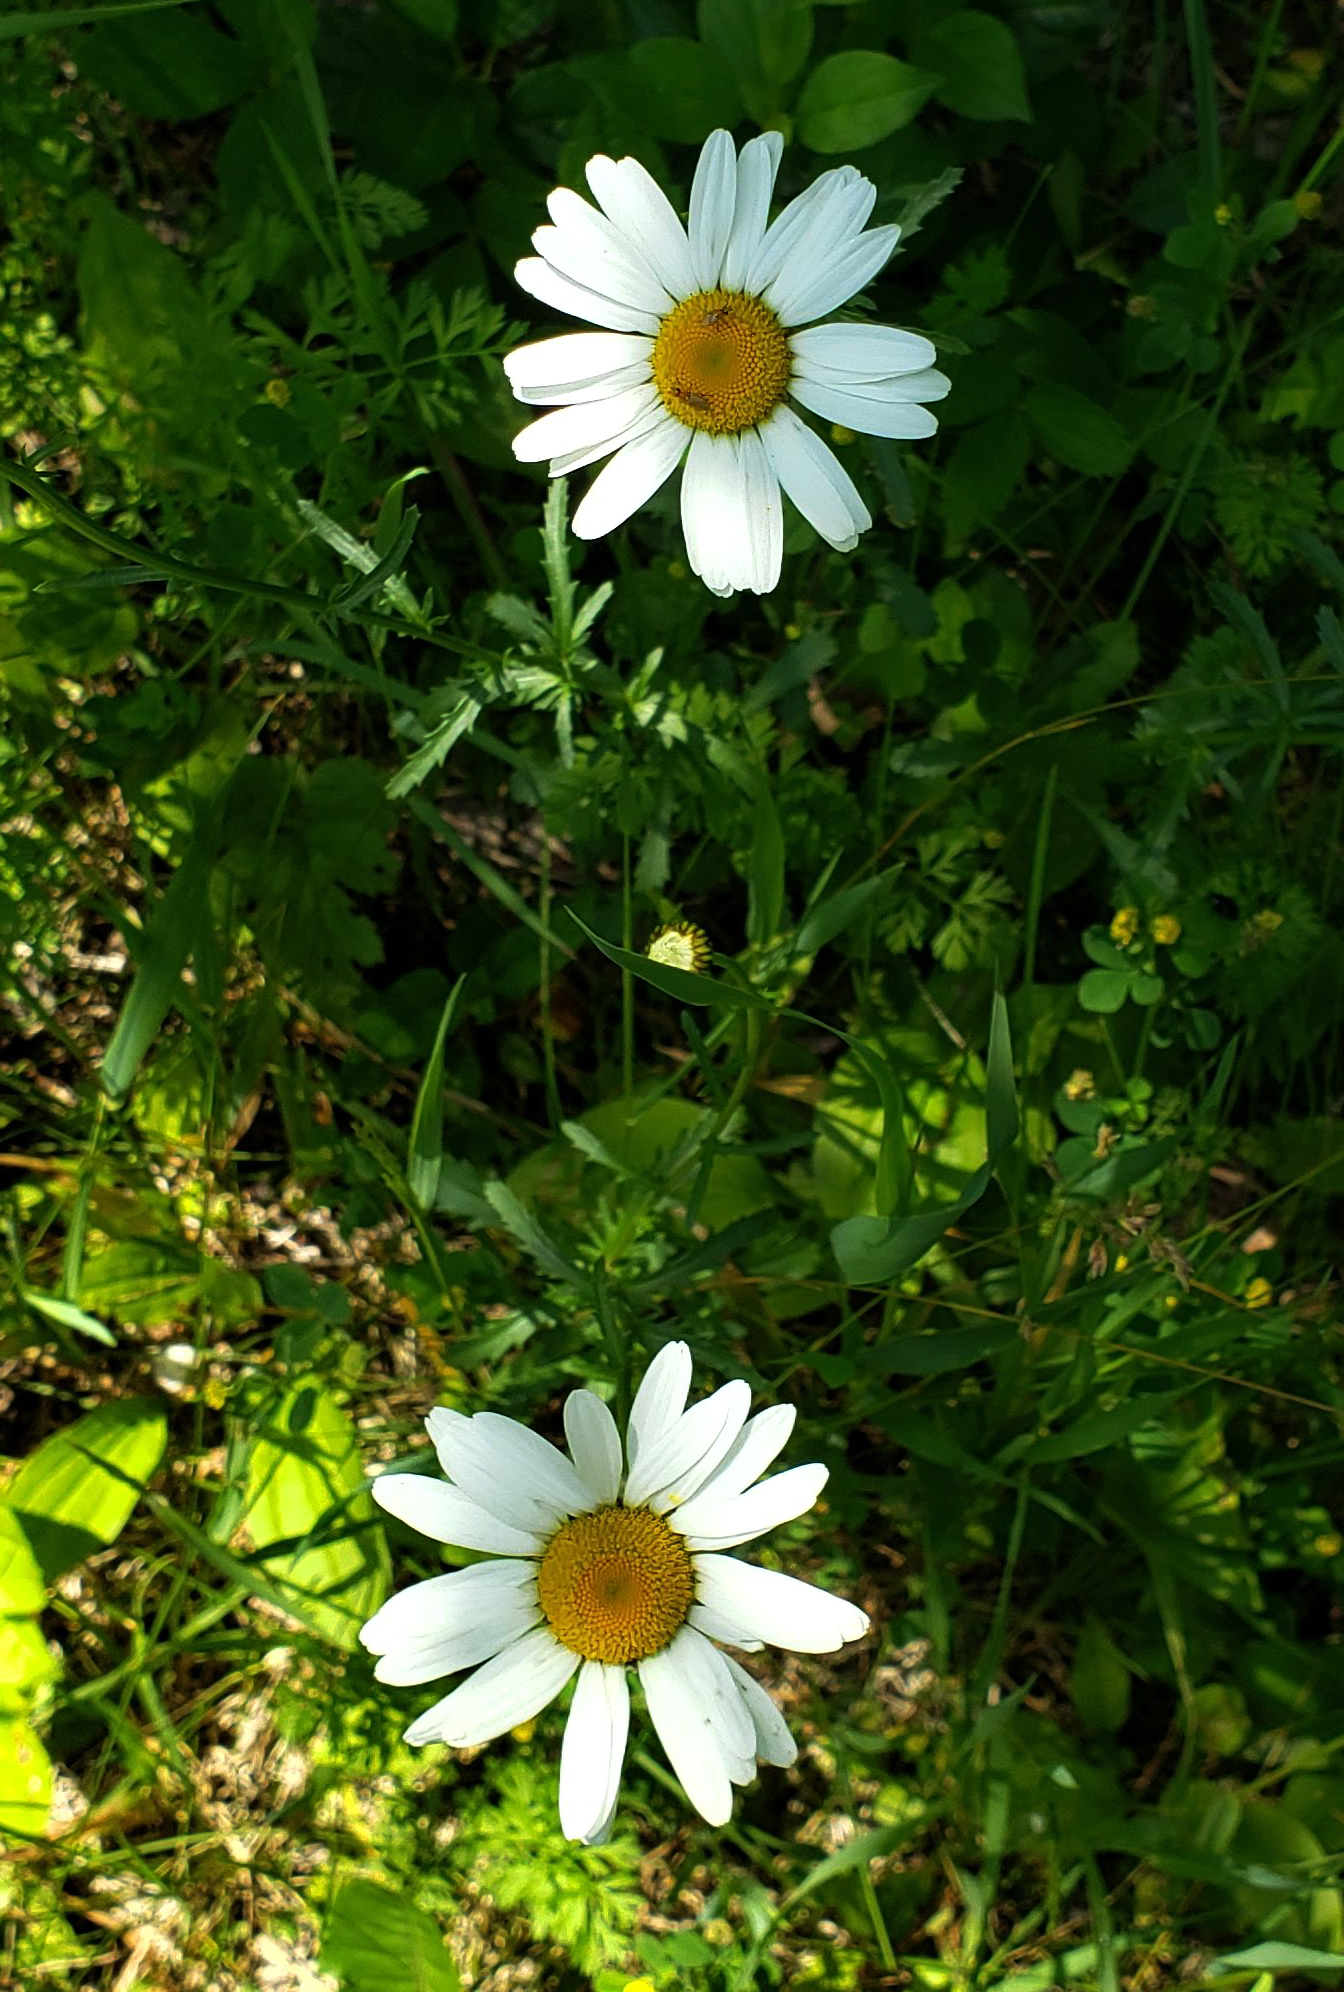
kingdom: Plantae
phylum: Tracheophyta
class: Magnoliopsida
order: Asterales
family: Asteraceae
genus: Leucanthemum
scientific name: Leucanthemum vulgare
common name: Oxeye daisy
